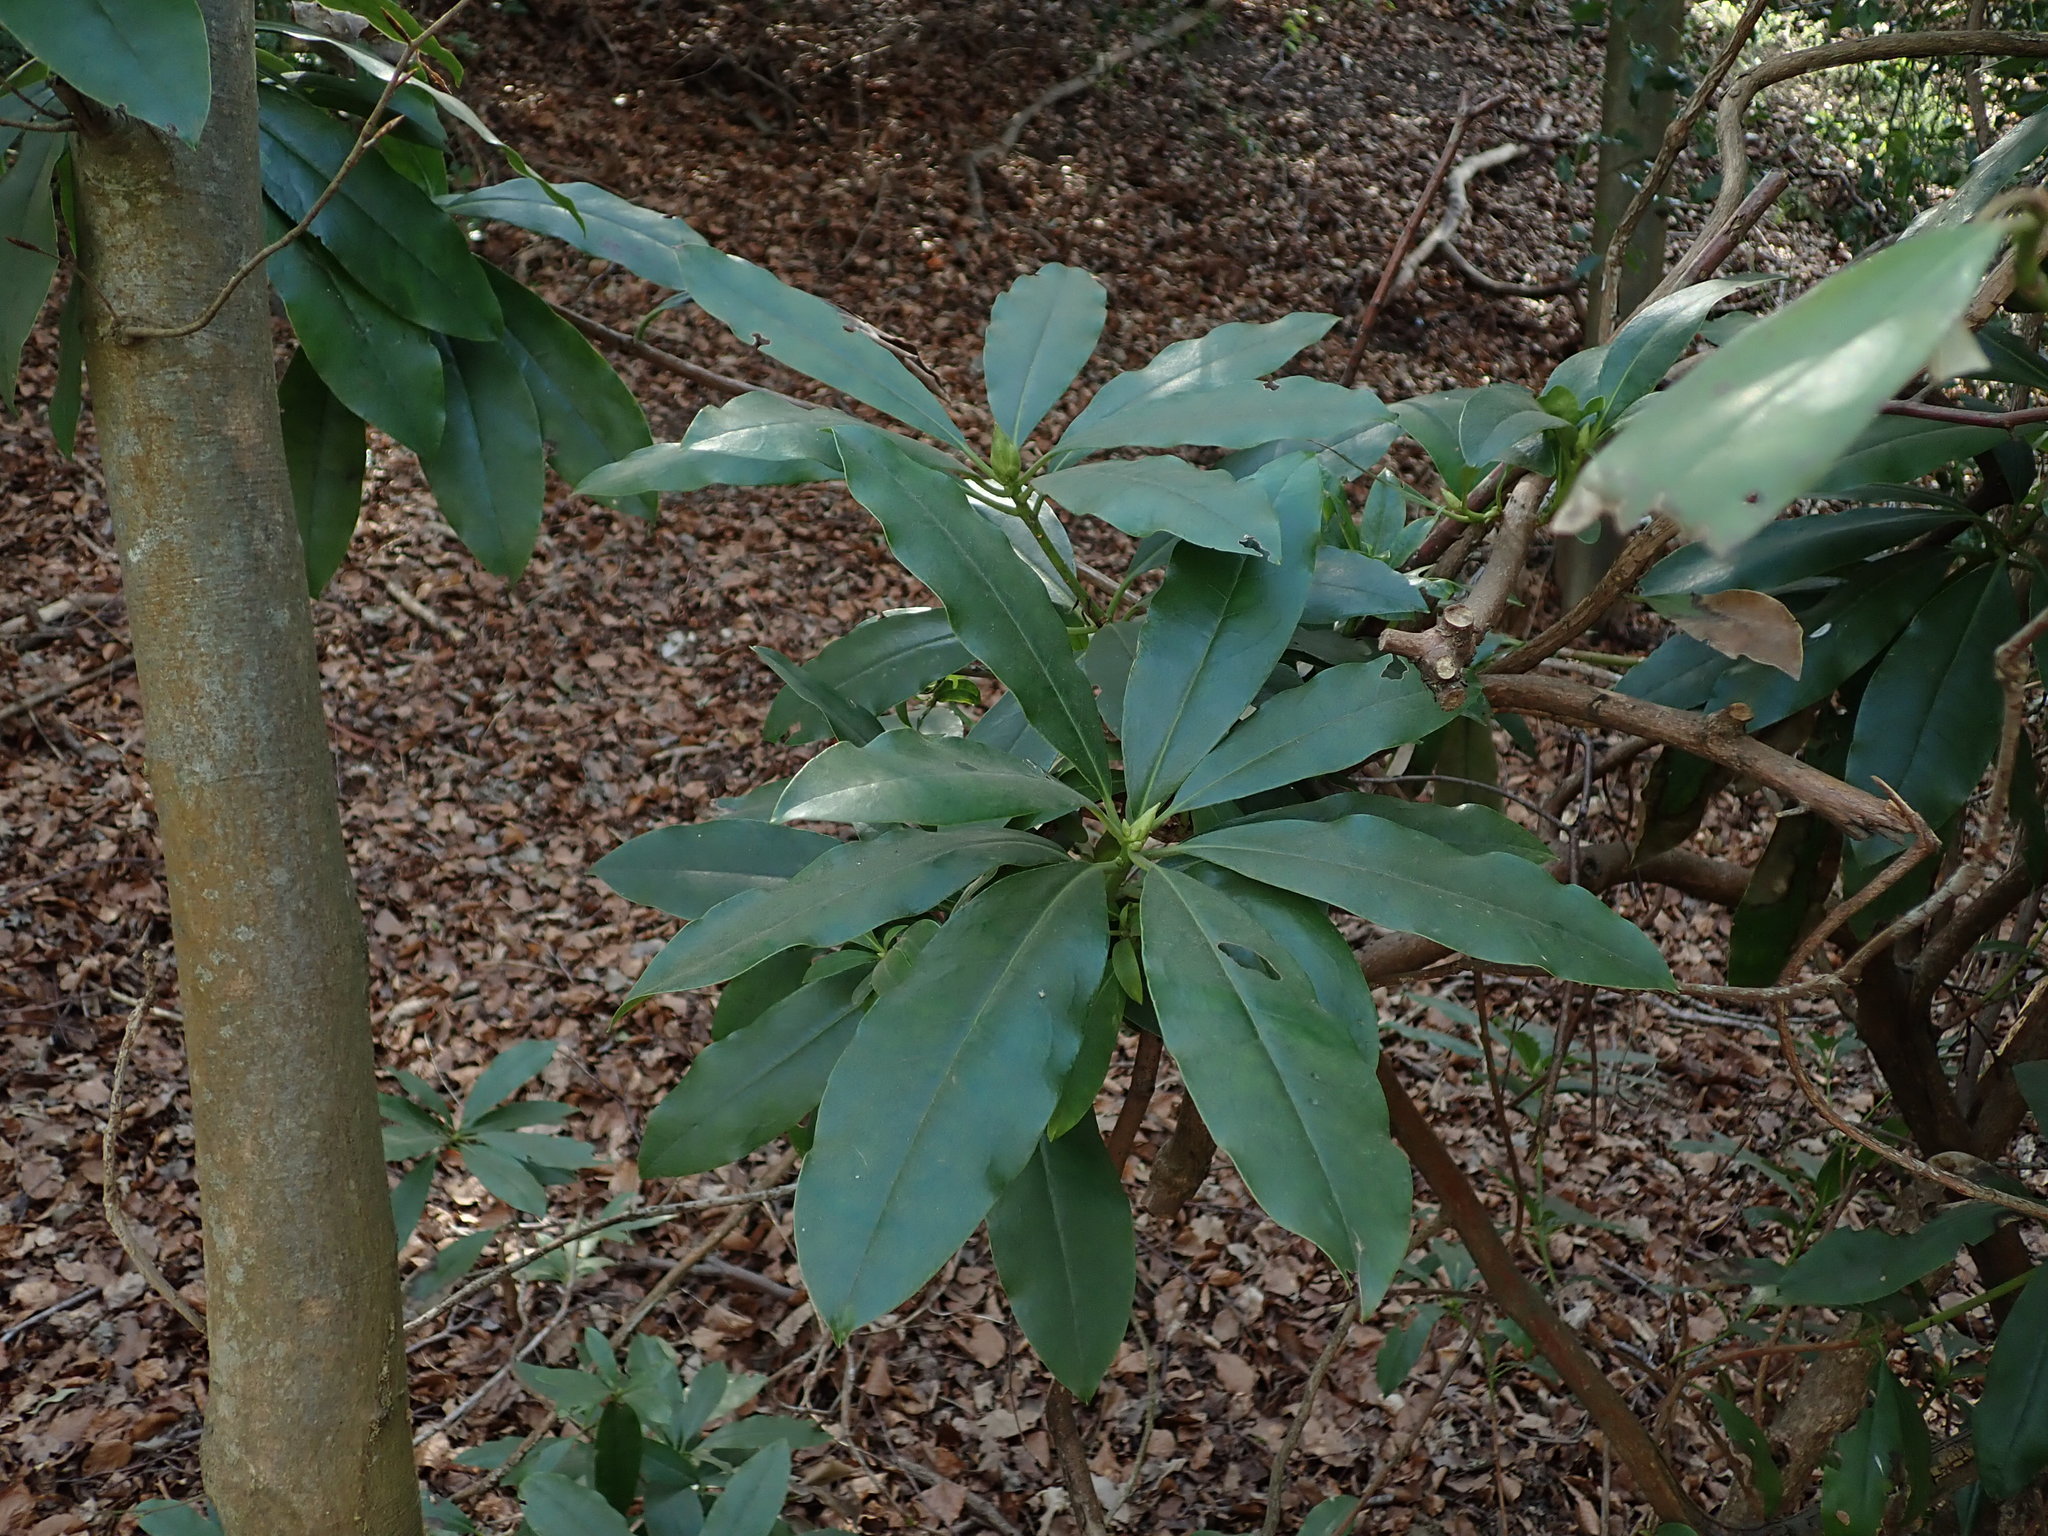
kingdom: Plantae
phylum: Tracheophyta
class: Magnoliopsida
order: Ericales
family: Ericaceae
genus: Rhododendron
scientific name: Rhododendron ponticum
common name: Rhododendron
